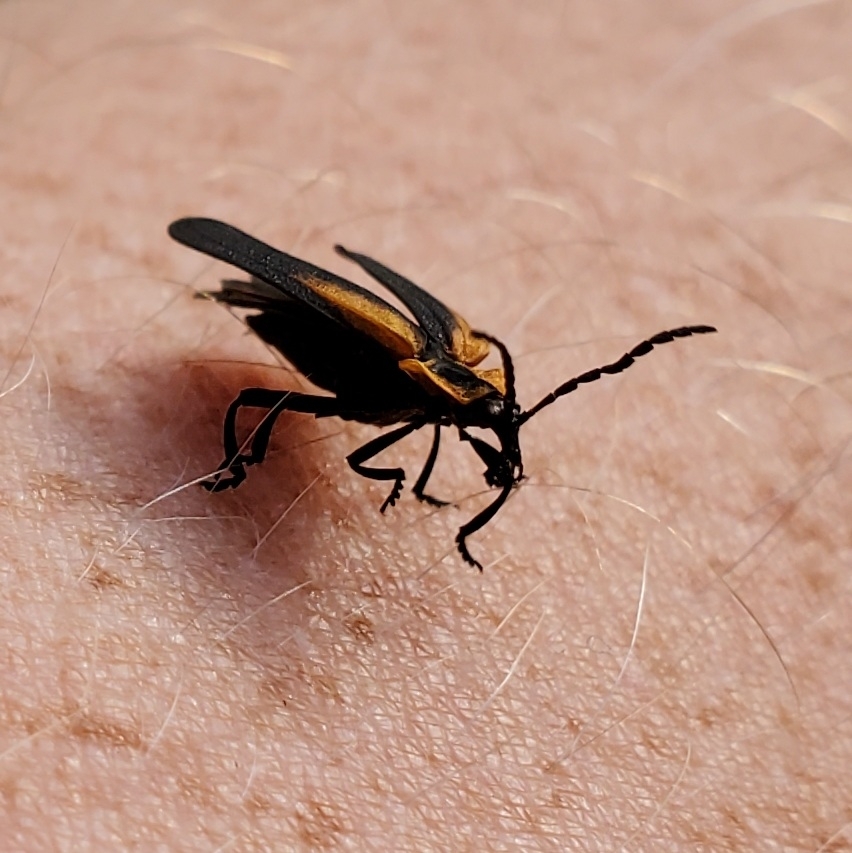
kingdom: Animalia
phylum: Arthropoda
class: Insecta
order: Coleoptera
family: Lycidae
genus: Lyconotus
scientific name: Lyconotus lateralis
